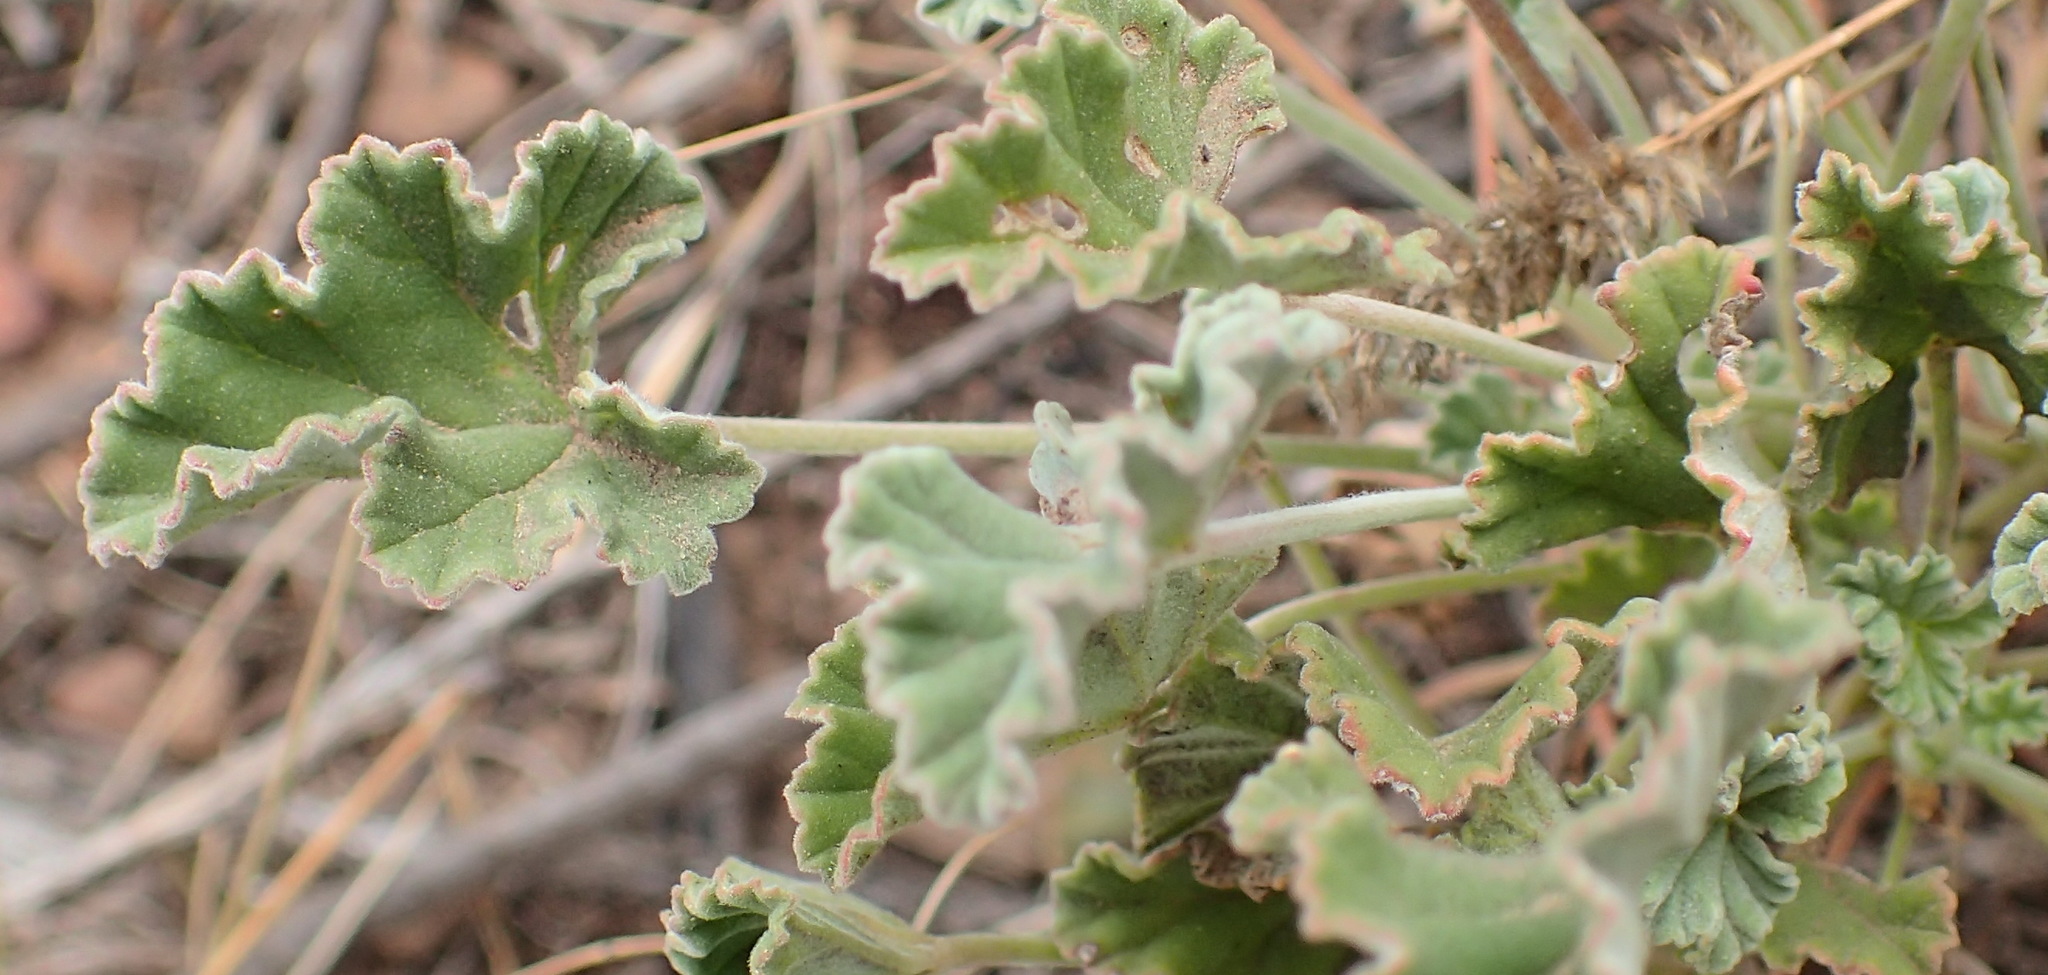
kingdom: Plantae
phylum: Tracheophyta
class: Magnoliopsida
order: Geraniales
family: Geraniaceae
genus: Pelargonium
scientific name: Pelargonium reniforme
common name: Kidney-leaf pelargonium
